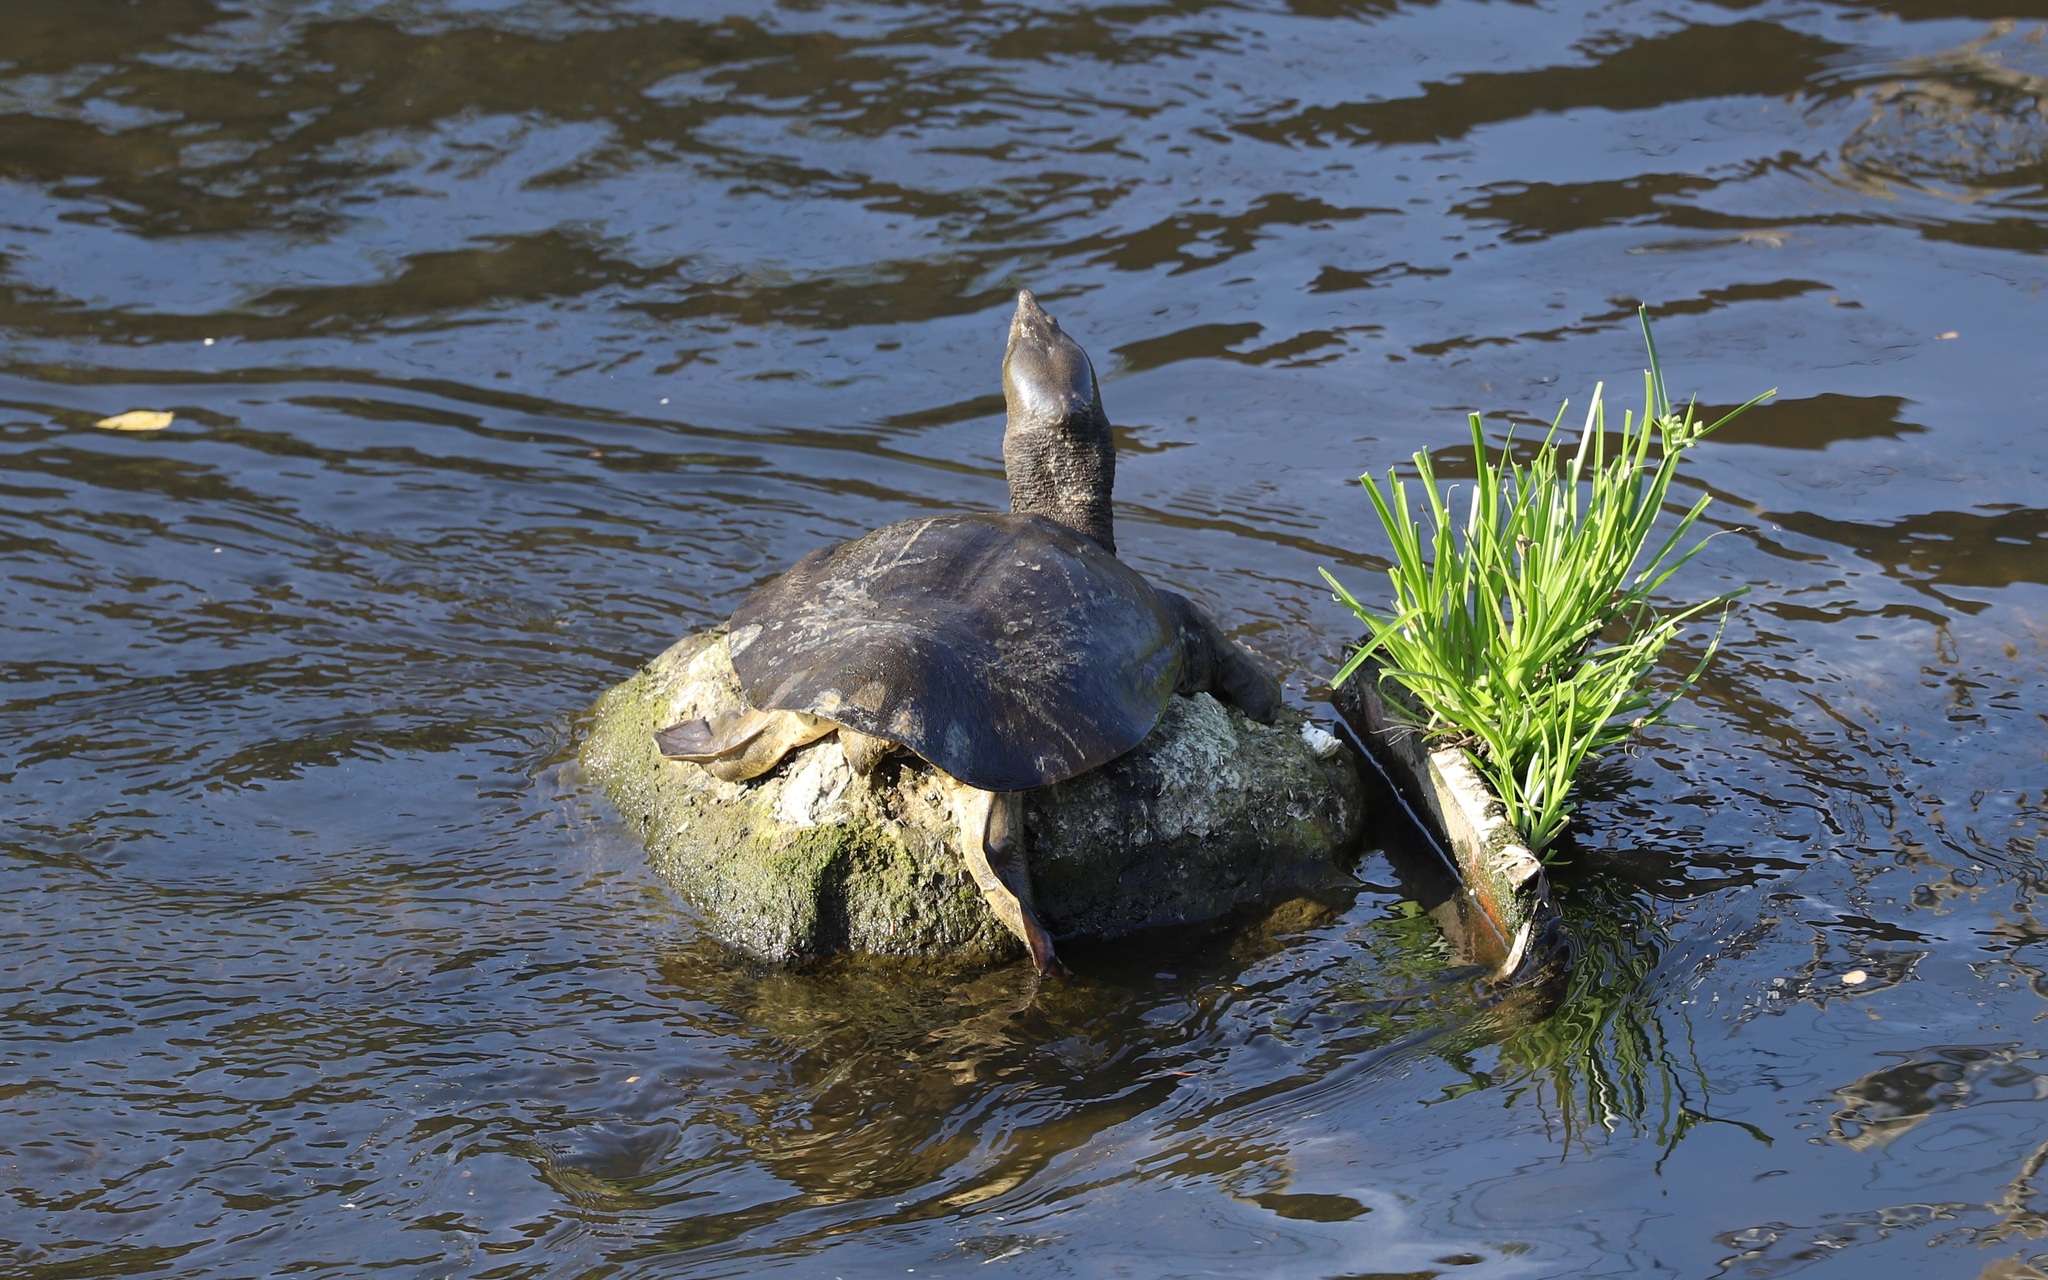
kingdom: Animalia
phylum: Chordata
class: Testudines
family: Trionychidae
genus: Pelodiscus
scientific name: Pelodiscus sinensis
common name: Chinese softshell turtle
